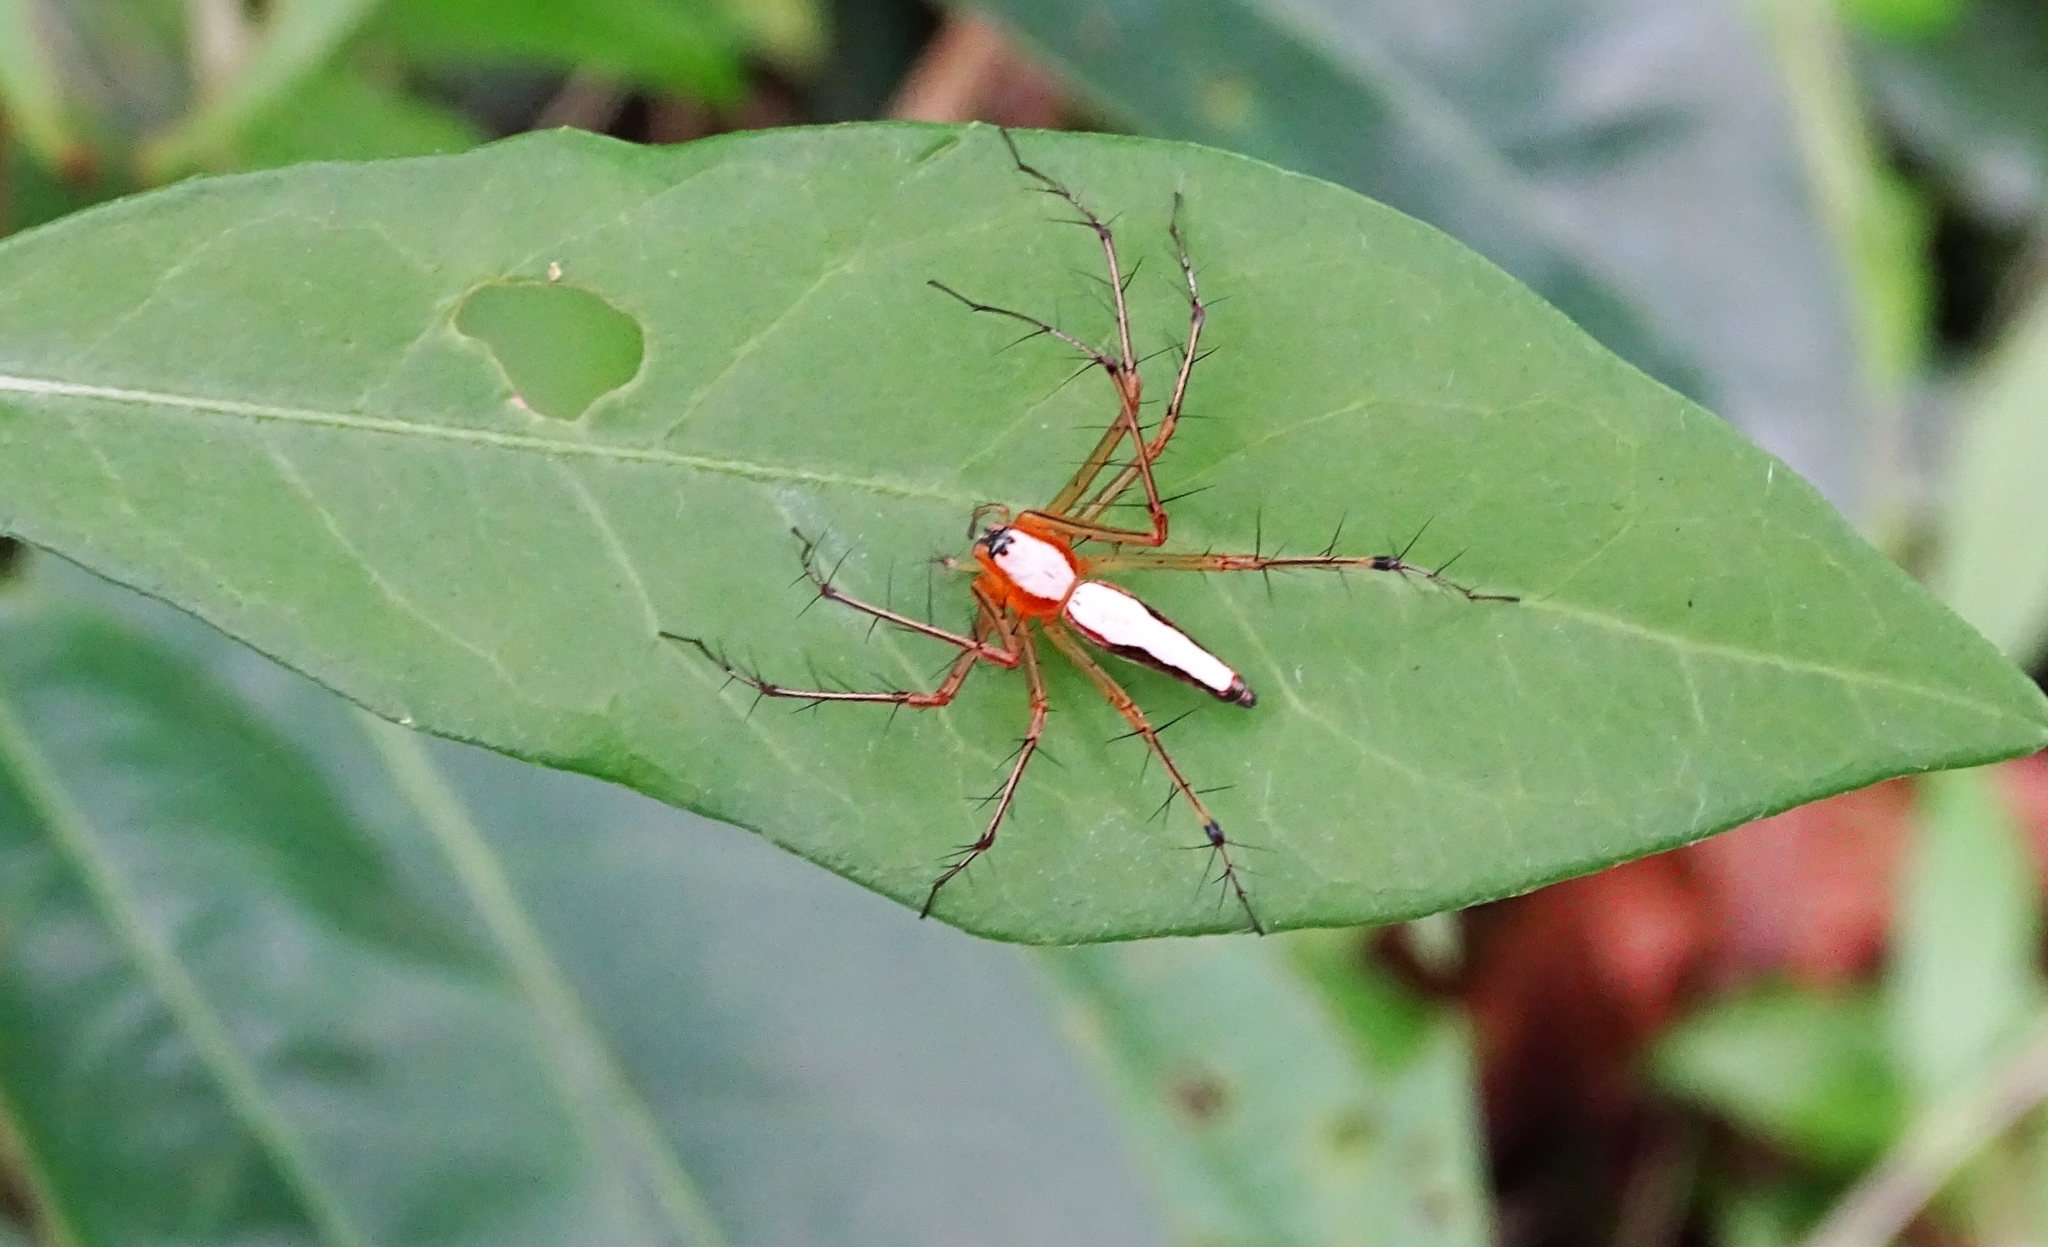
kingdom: Animalia
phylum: Arthropoda
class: Arachnida
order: Araneae
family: Oxyopidae
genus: Oxyopes
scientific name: Oxyopes shweta
